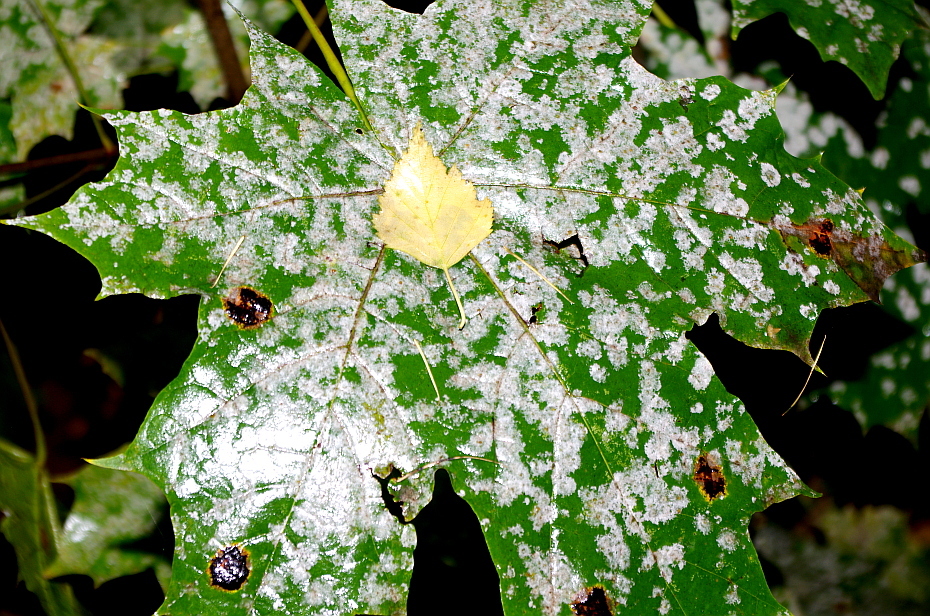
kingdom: Plantae
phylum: Tracheophyta
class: Magnoliopsida
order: Sapindales
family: Sapindaceae
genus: Acer
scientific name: Acer platanoides
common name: Norway maple
